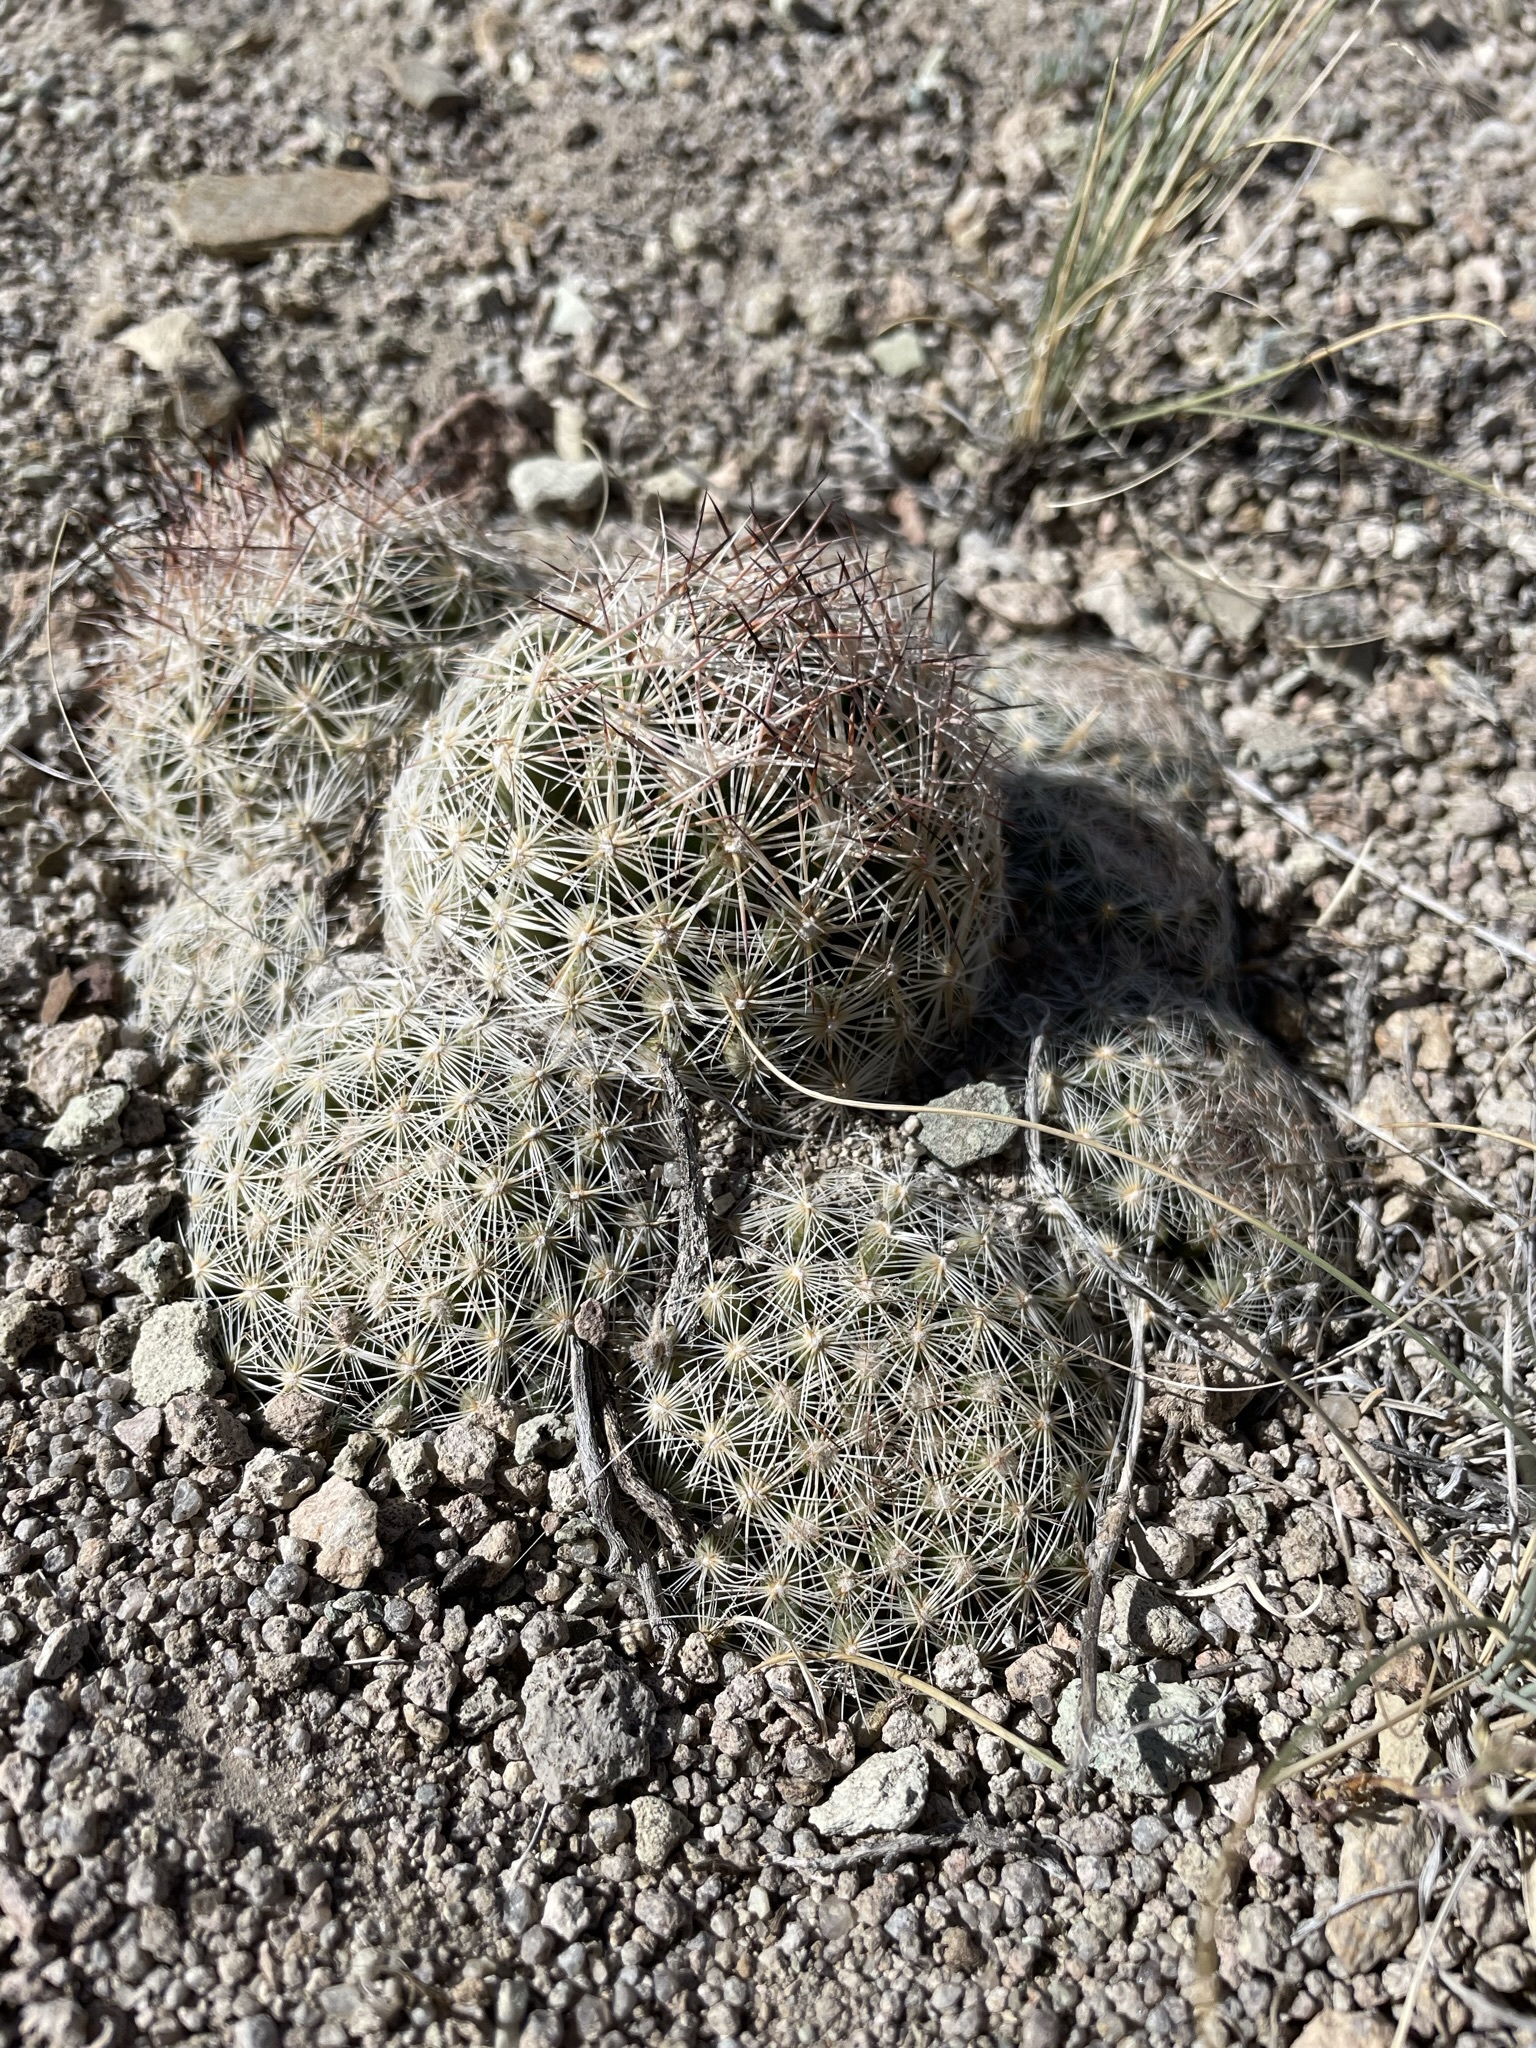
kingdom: Plantae
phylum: Tracheophyta
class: Magnoliopsida
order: Caryophyllales
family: Cactaceae
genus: Pelecyphora
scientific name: Pelecyphora vivipara
